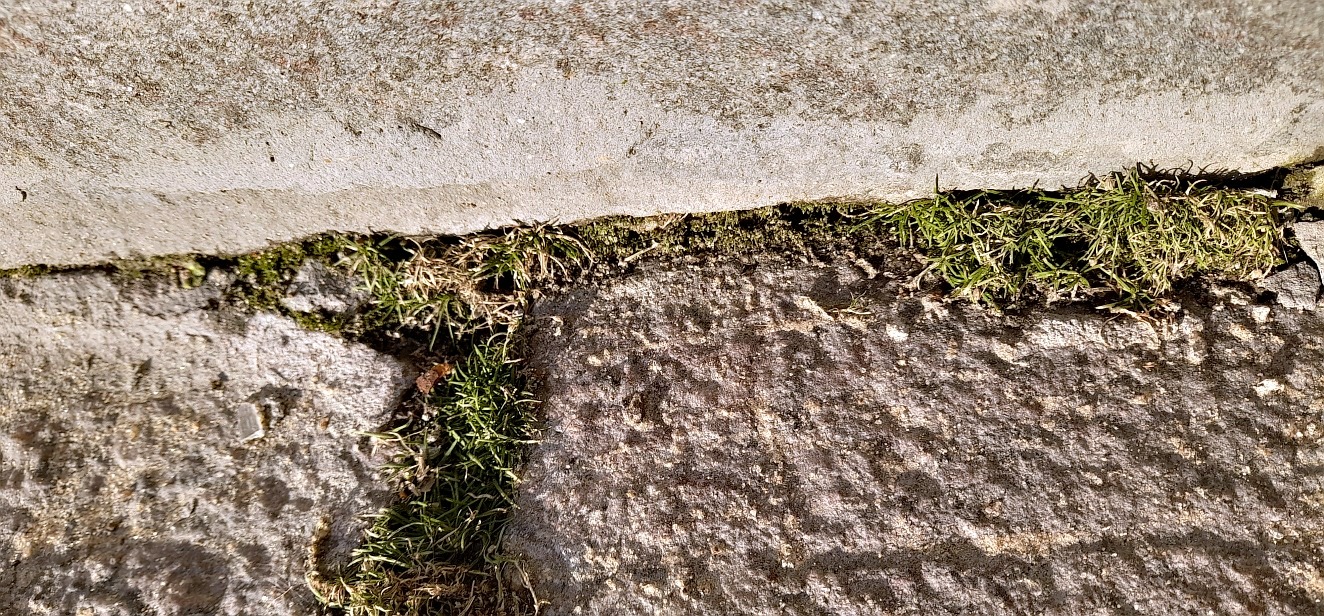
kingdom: Plantae
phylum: Tracheophyta
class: Magnoliopsida
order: Caryophyllales
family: Caryophyllaceae
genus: Sagina
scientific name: Sagina procumbens
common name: Procumbent pearlwort
